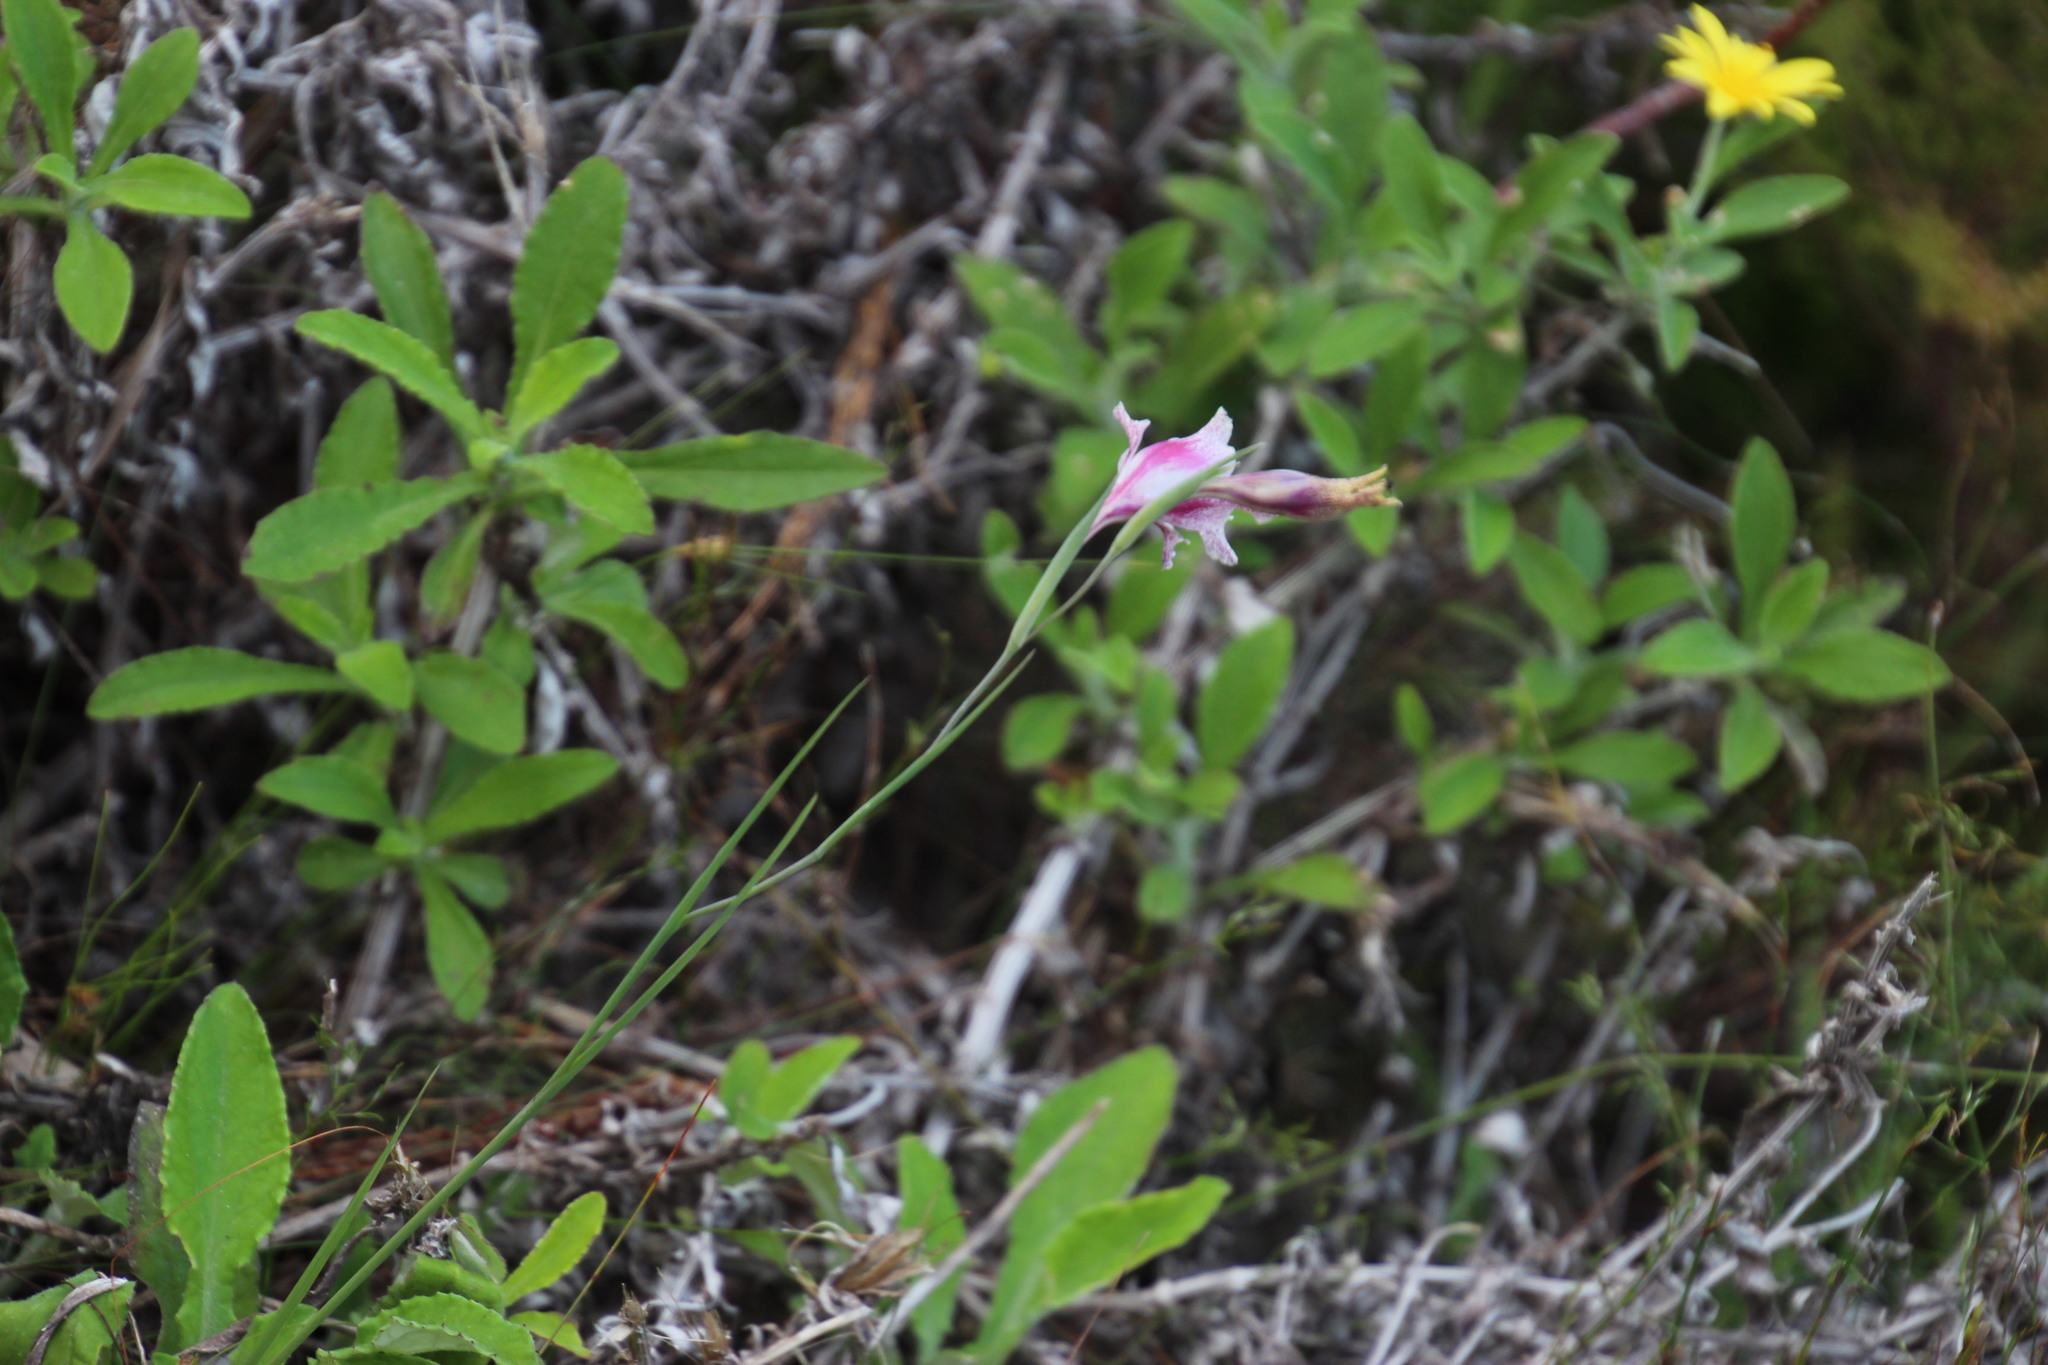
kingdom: Plantae
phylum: Tracheophyta
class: Liliopsida
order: Asparagales
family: Iridaceae
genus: Gladiolus
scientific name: Gladiolus maculatus
